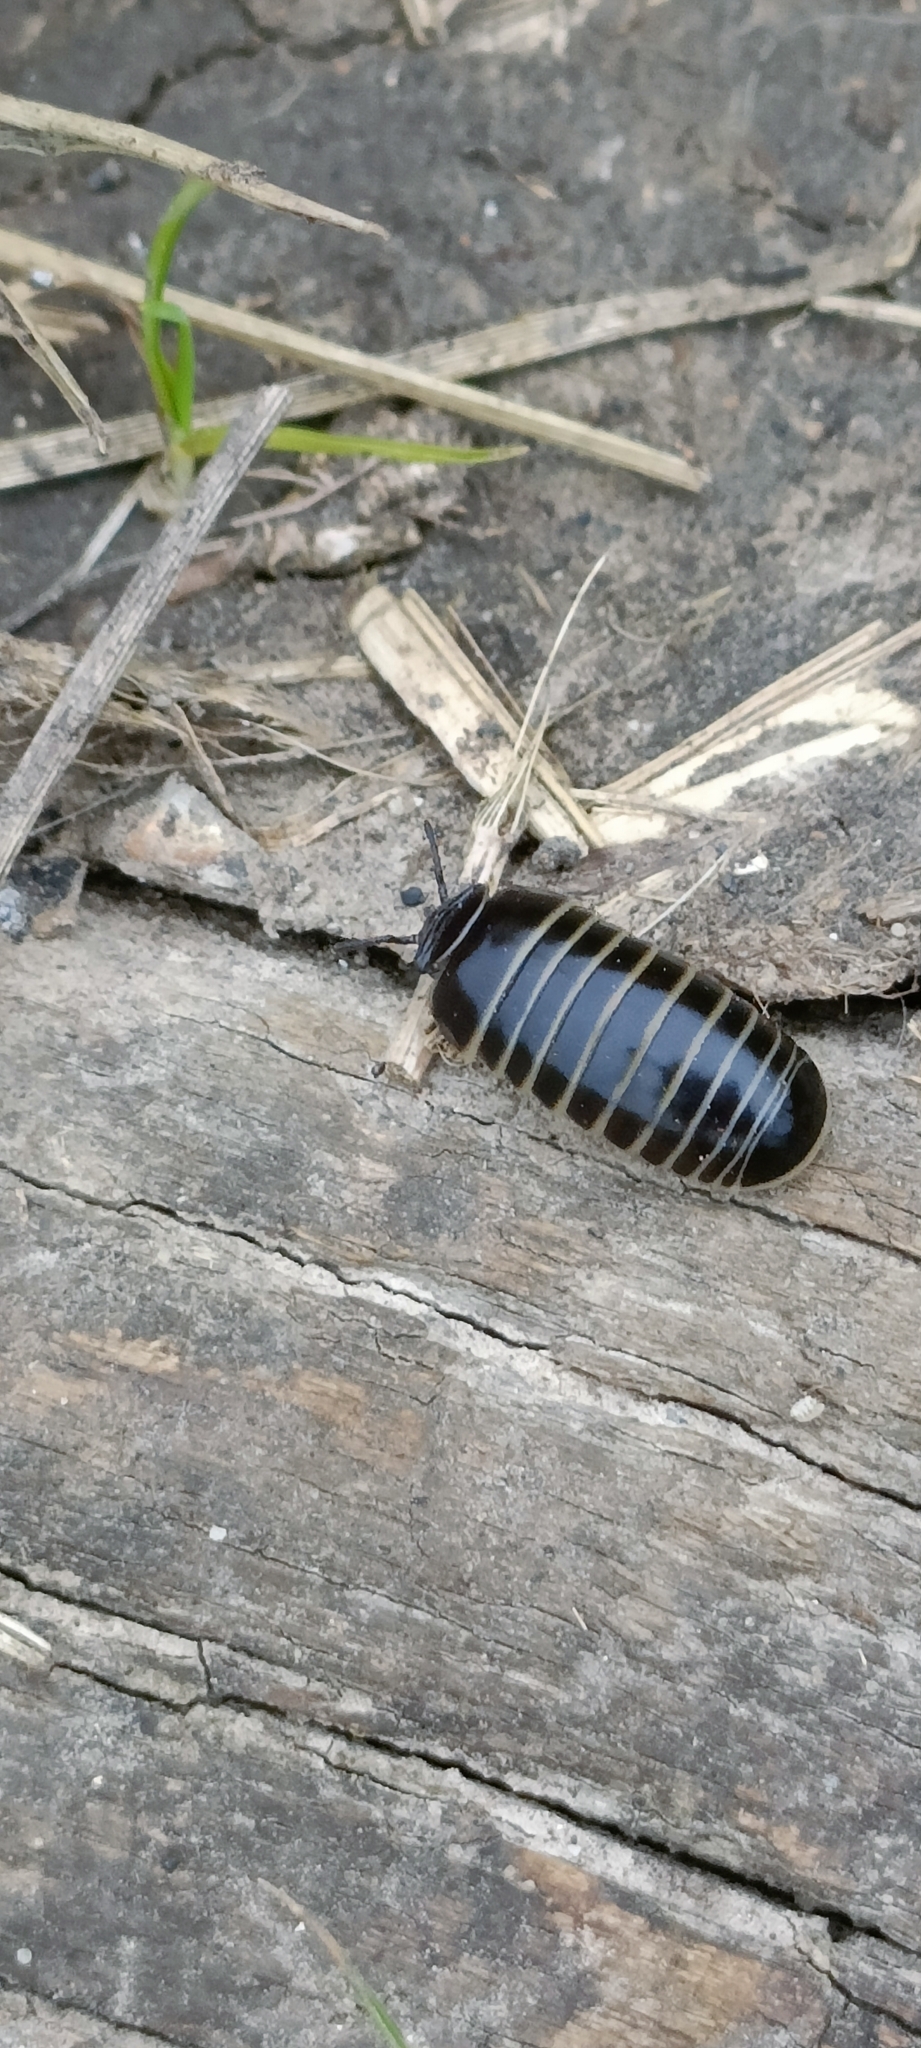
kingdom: Animalia
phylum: Arthropoda
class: Diplopoda
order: Glomerida
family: Glomeridae
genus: Glomeris
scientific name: Glomeris marginata
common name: Bordered pill millipede
